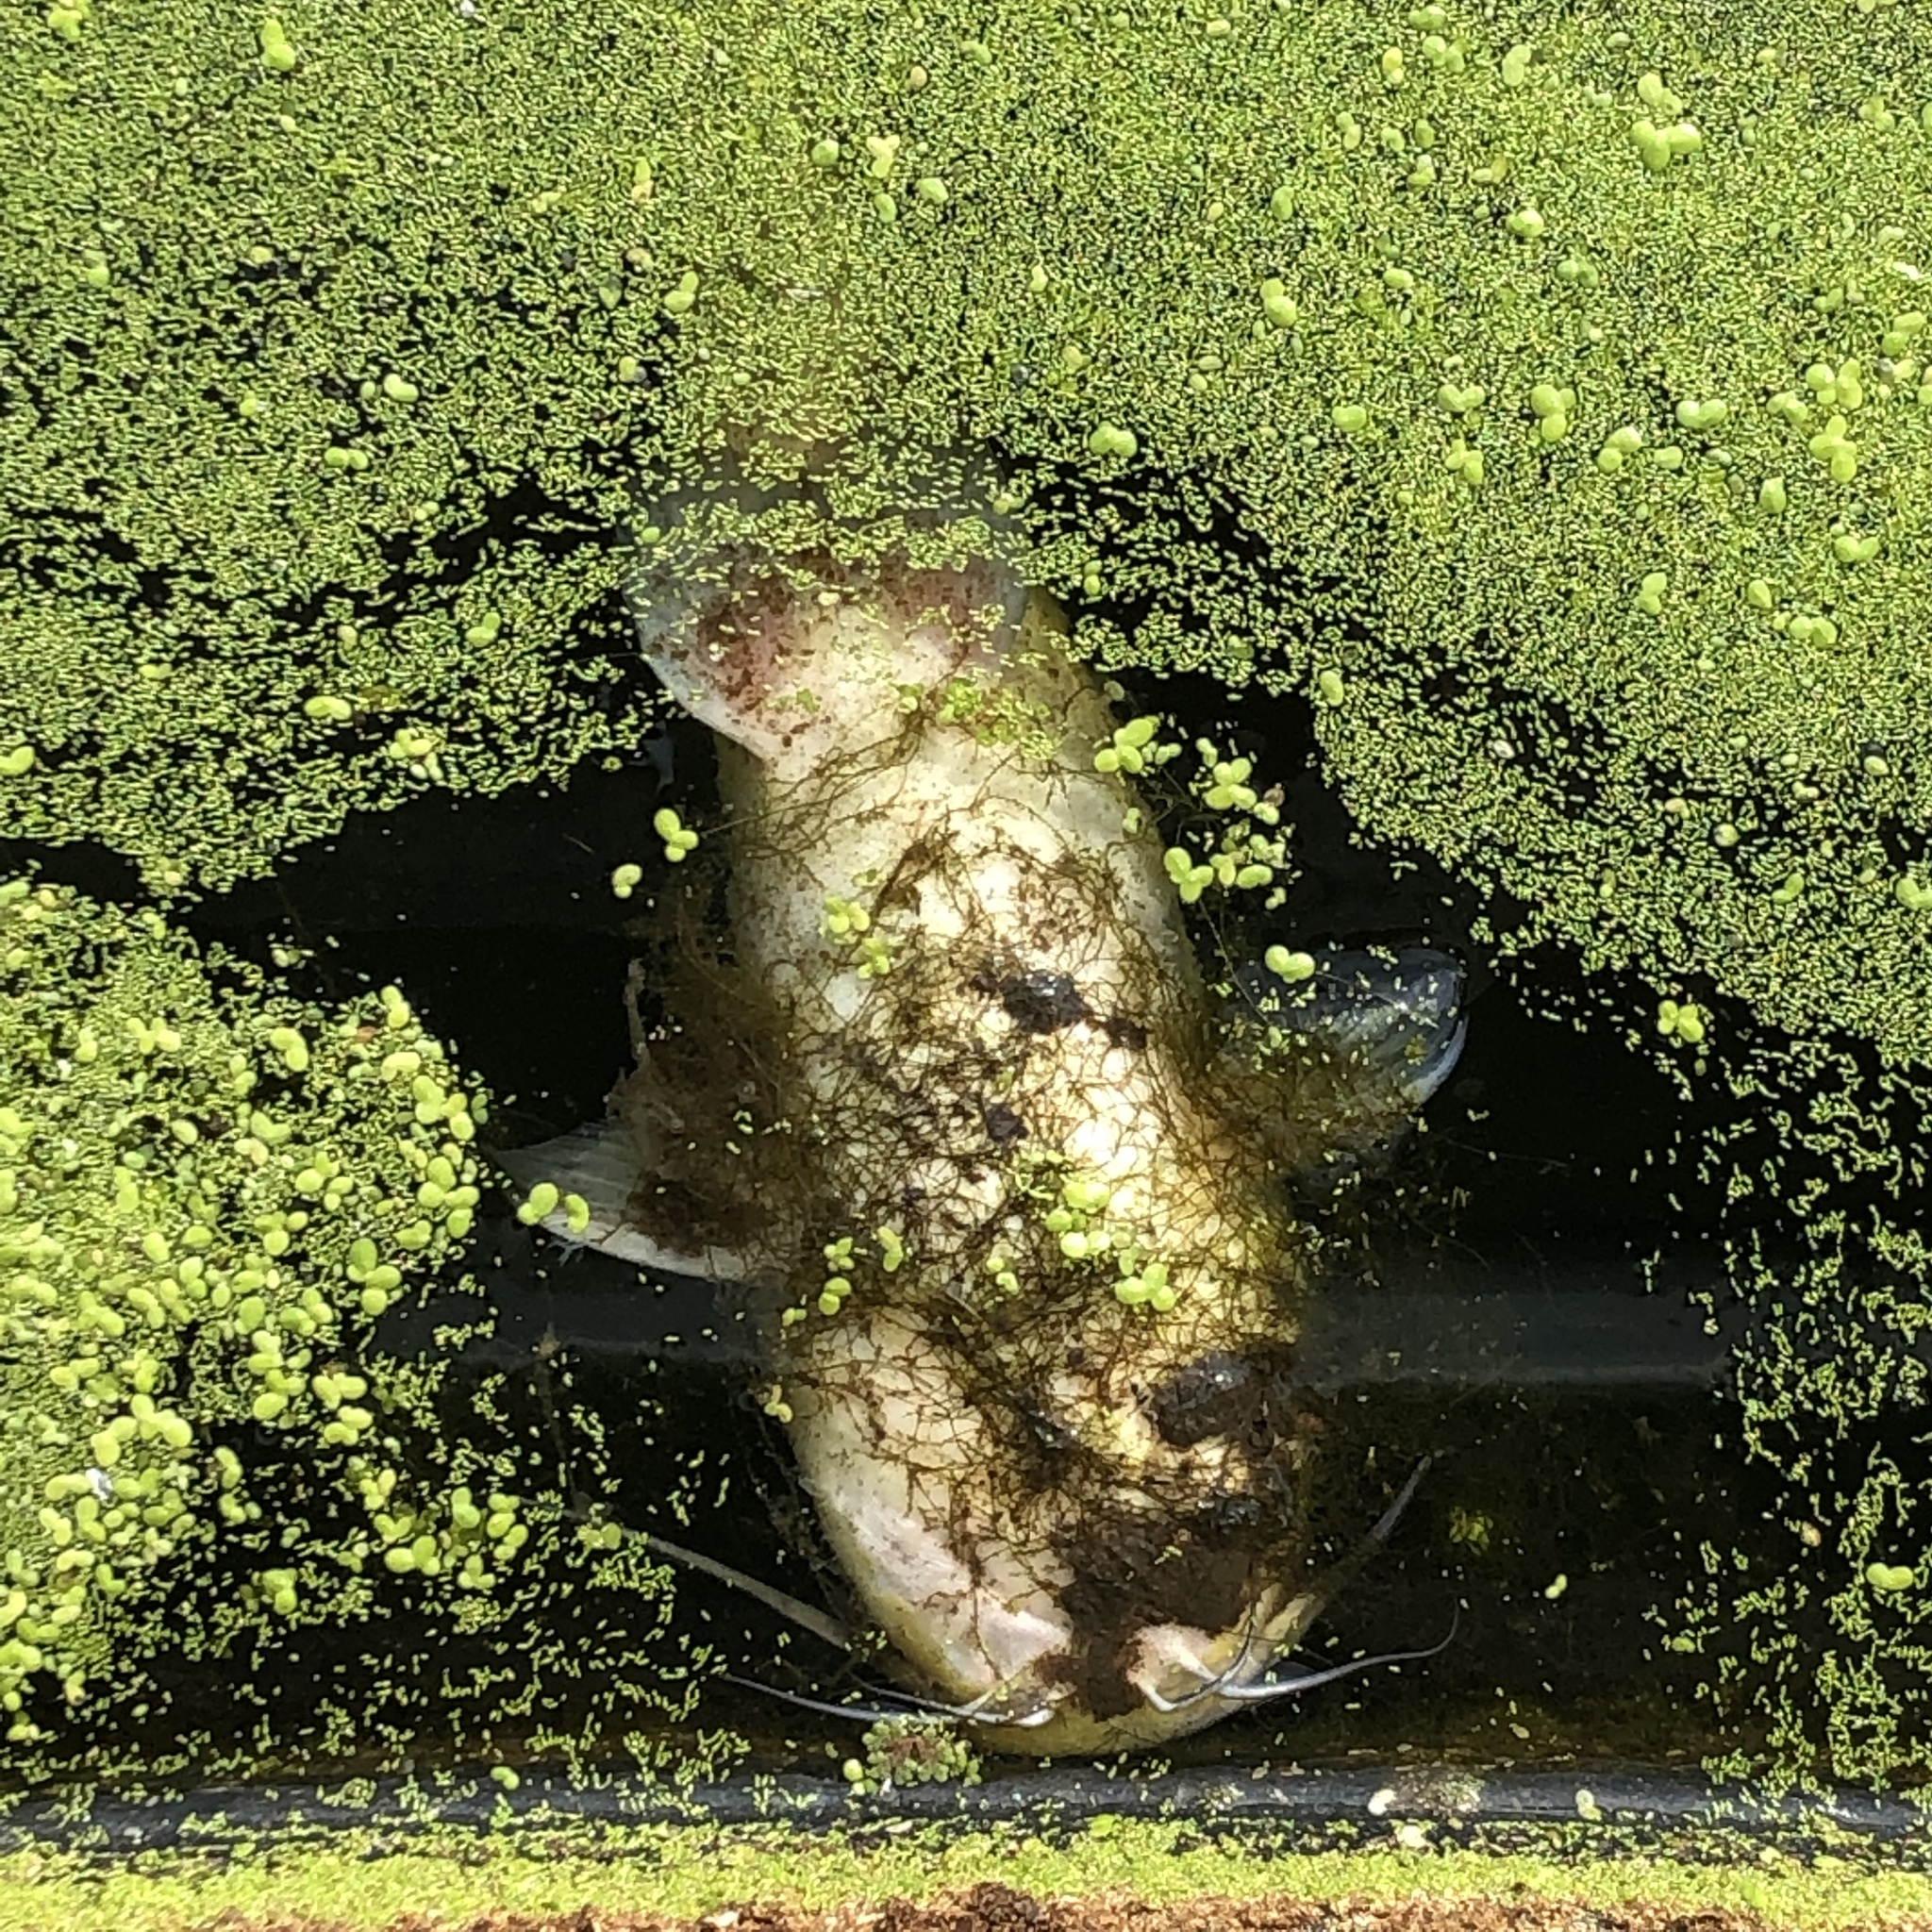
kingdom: Animalia
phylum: Chordata
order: Siluriformes
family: Ictaluridae
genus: Ameiurus
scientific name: Ameiurus nebulosus
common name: Brown bullhead
